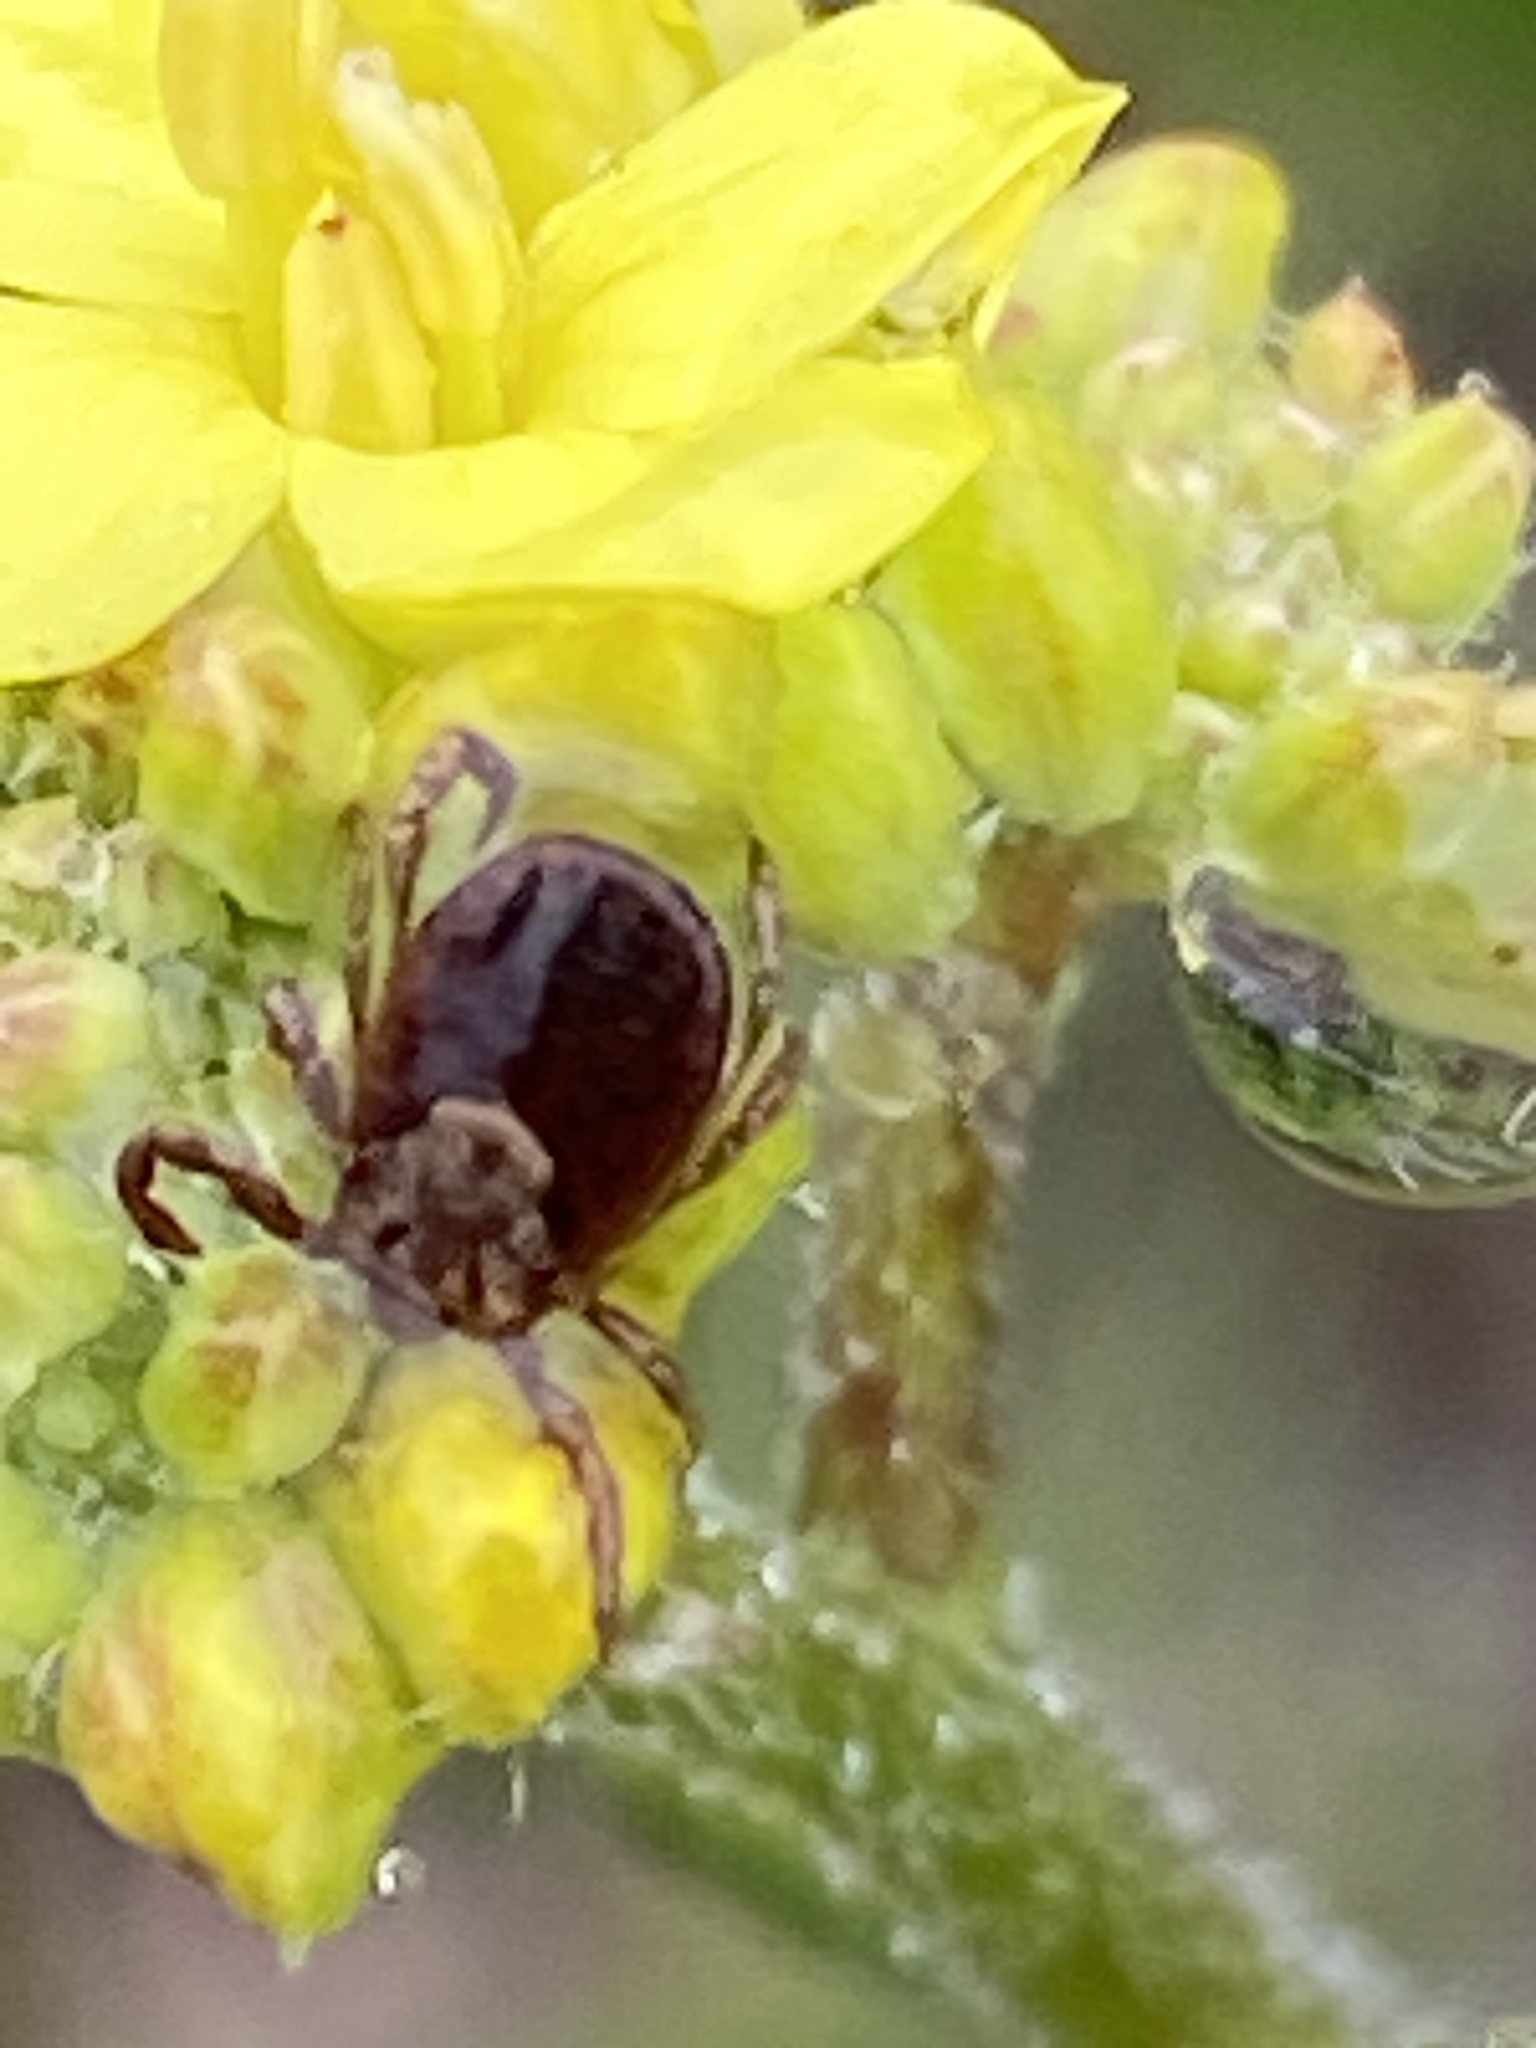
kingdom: Animalia
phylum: Arthropoda
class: Arachnida
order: Ixodida
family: Ixodidae
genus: Dermacentor
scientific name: Dermacentor occidentalis
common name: Net tick
